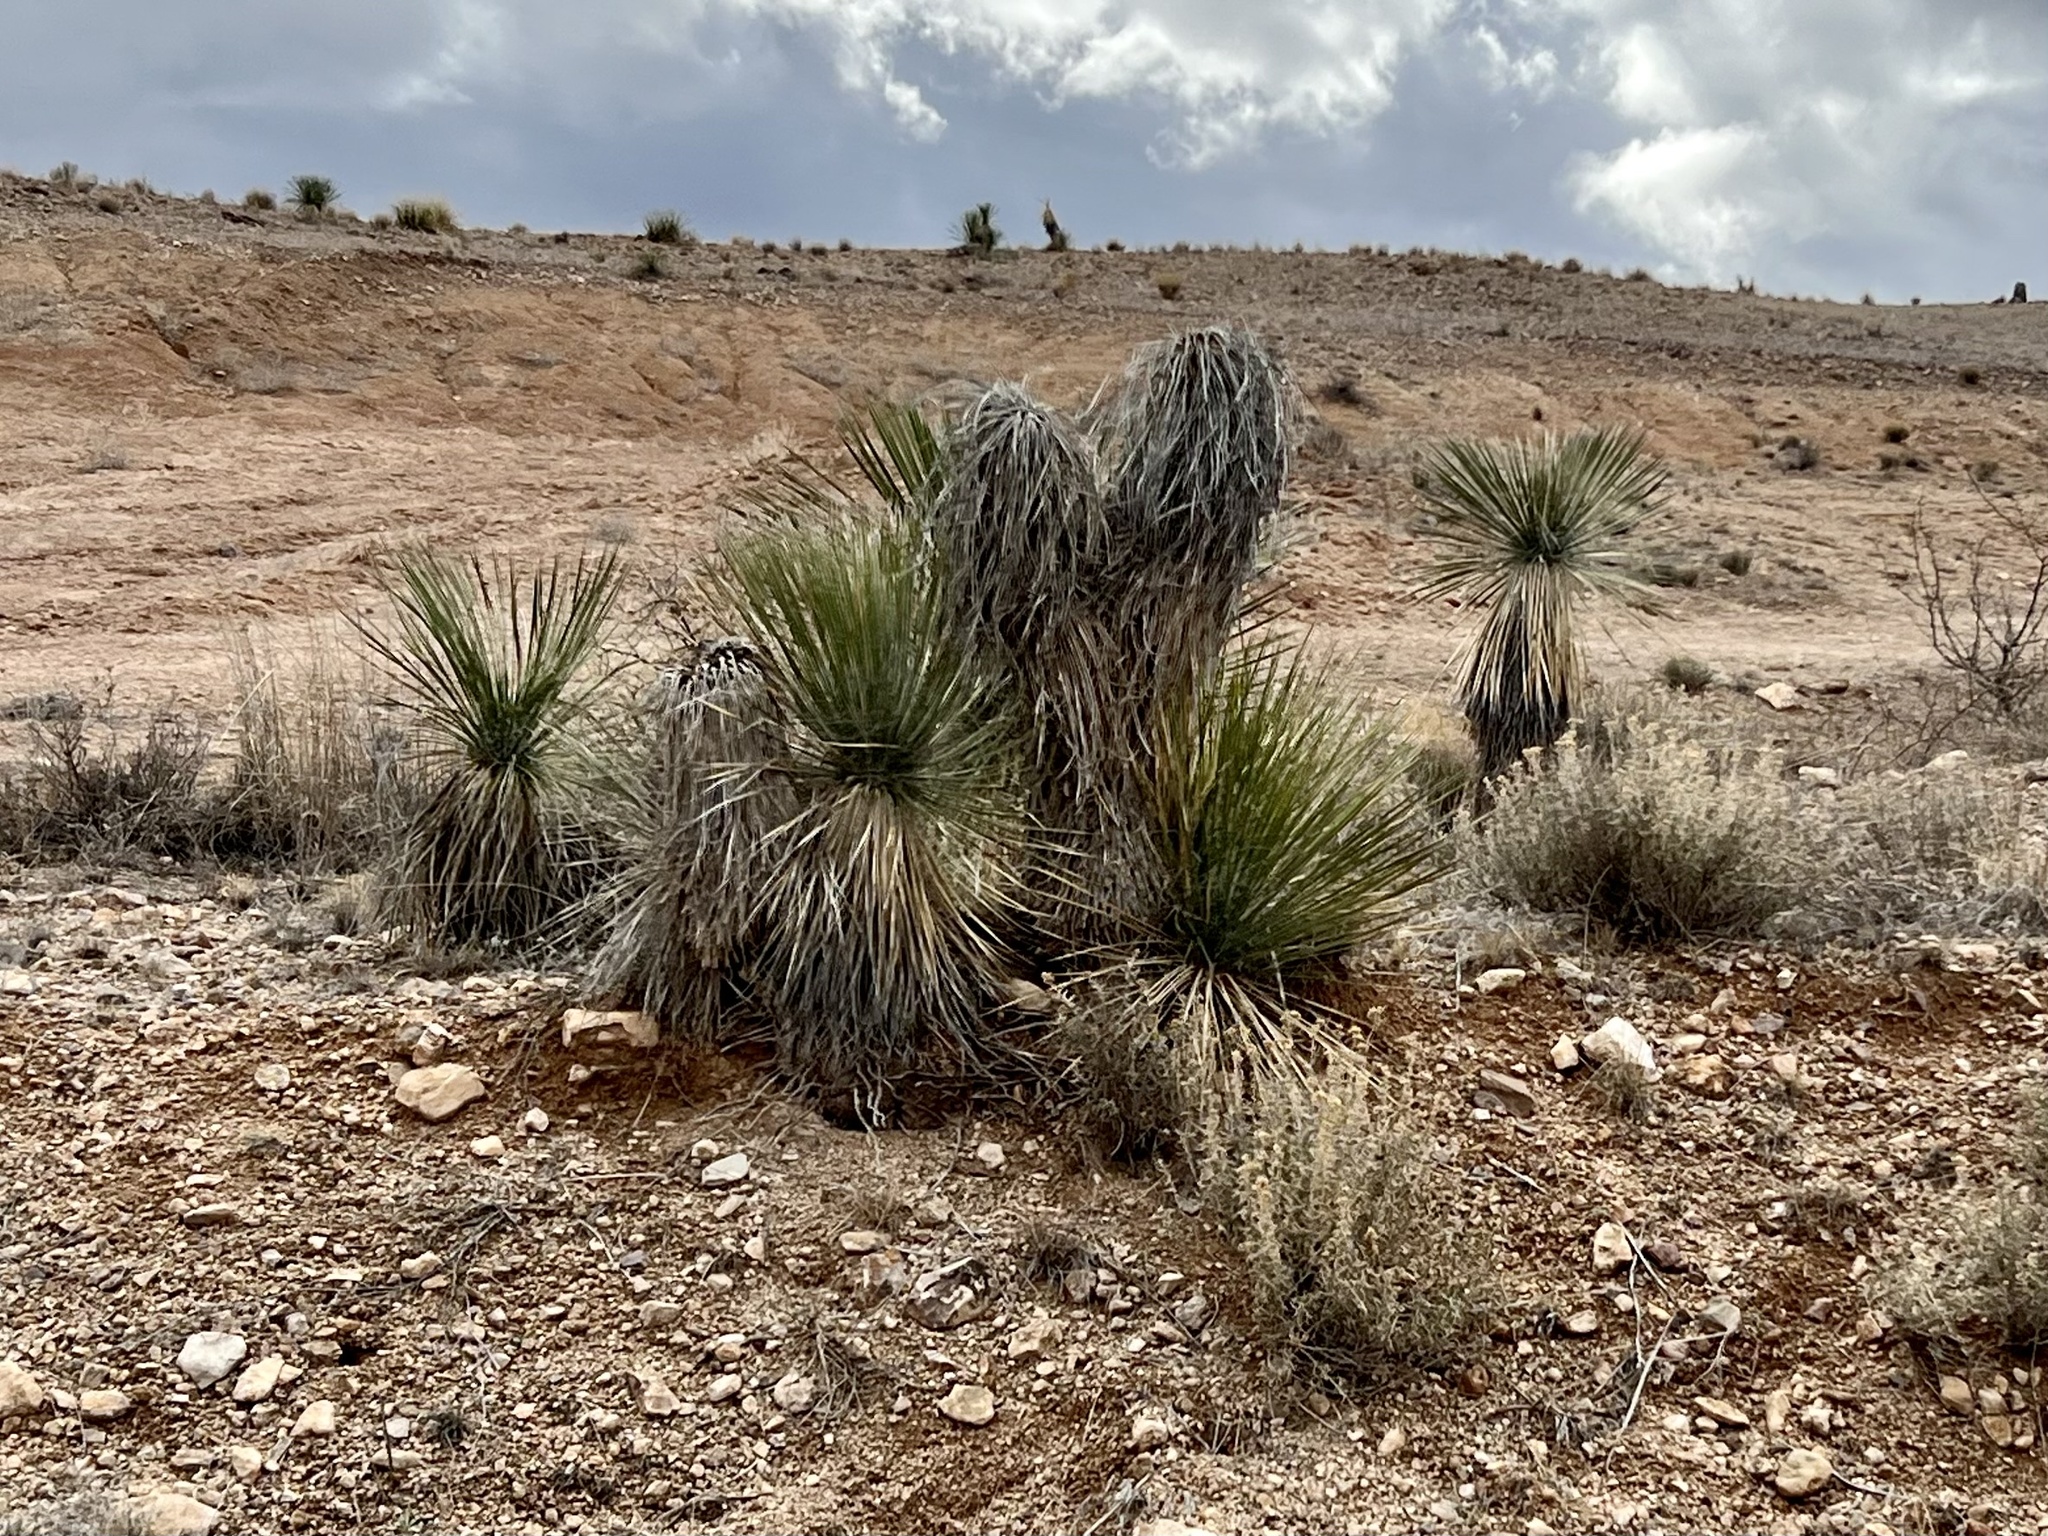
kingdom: Plantae
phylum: Tracheophyta
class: Liliopsida
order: Asparagales
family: Asparagaceae
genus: Yucca
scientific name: Yucca elata
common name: Palmella
